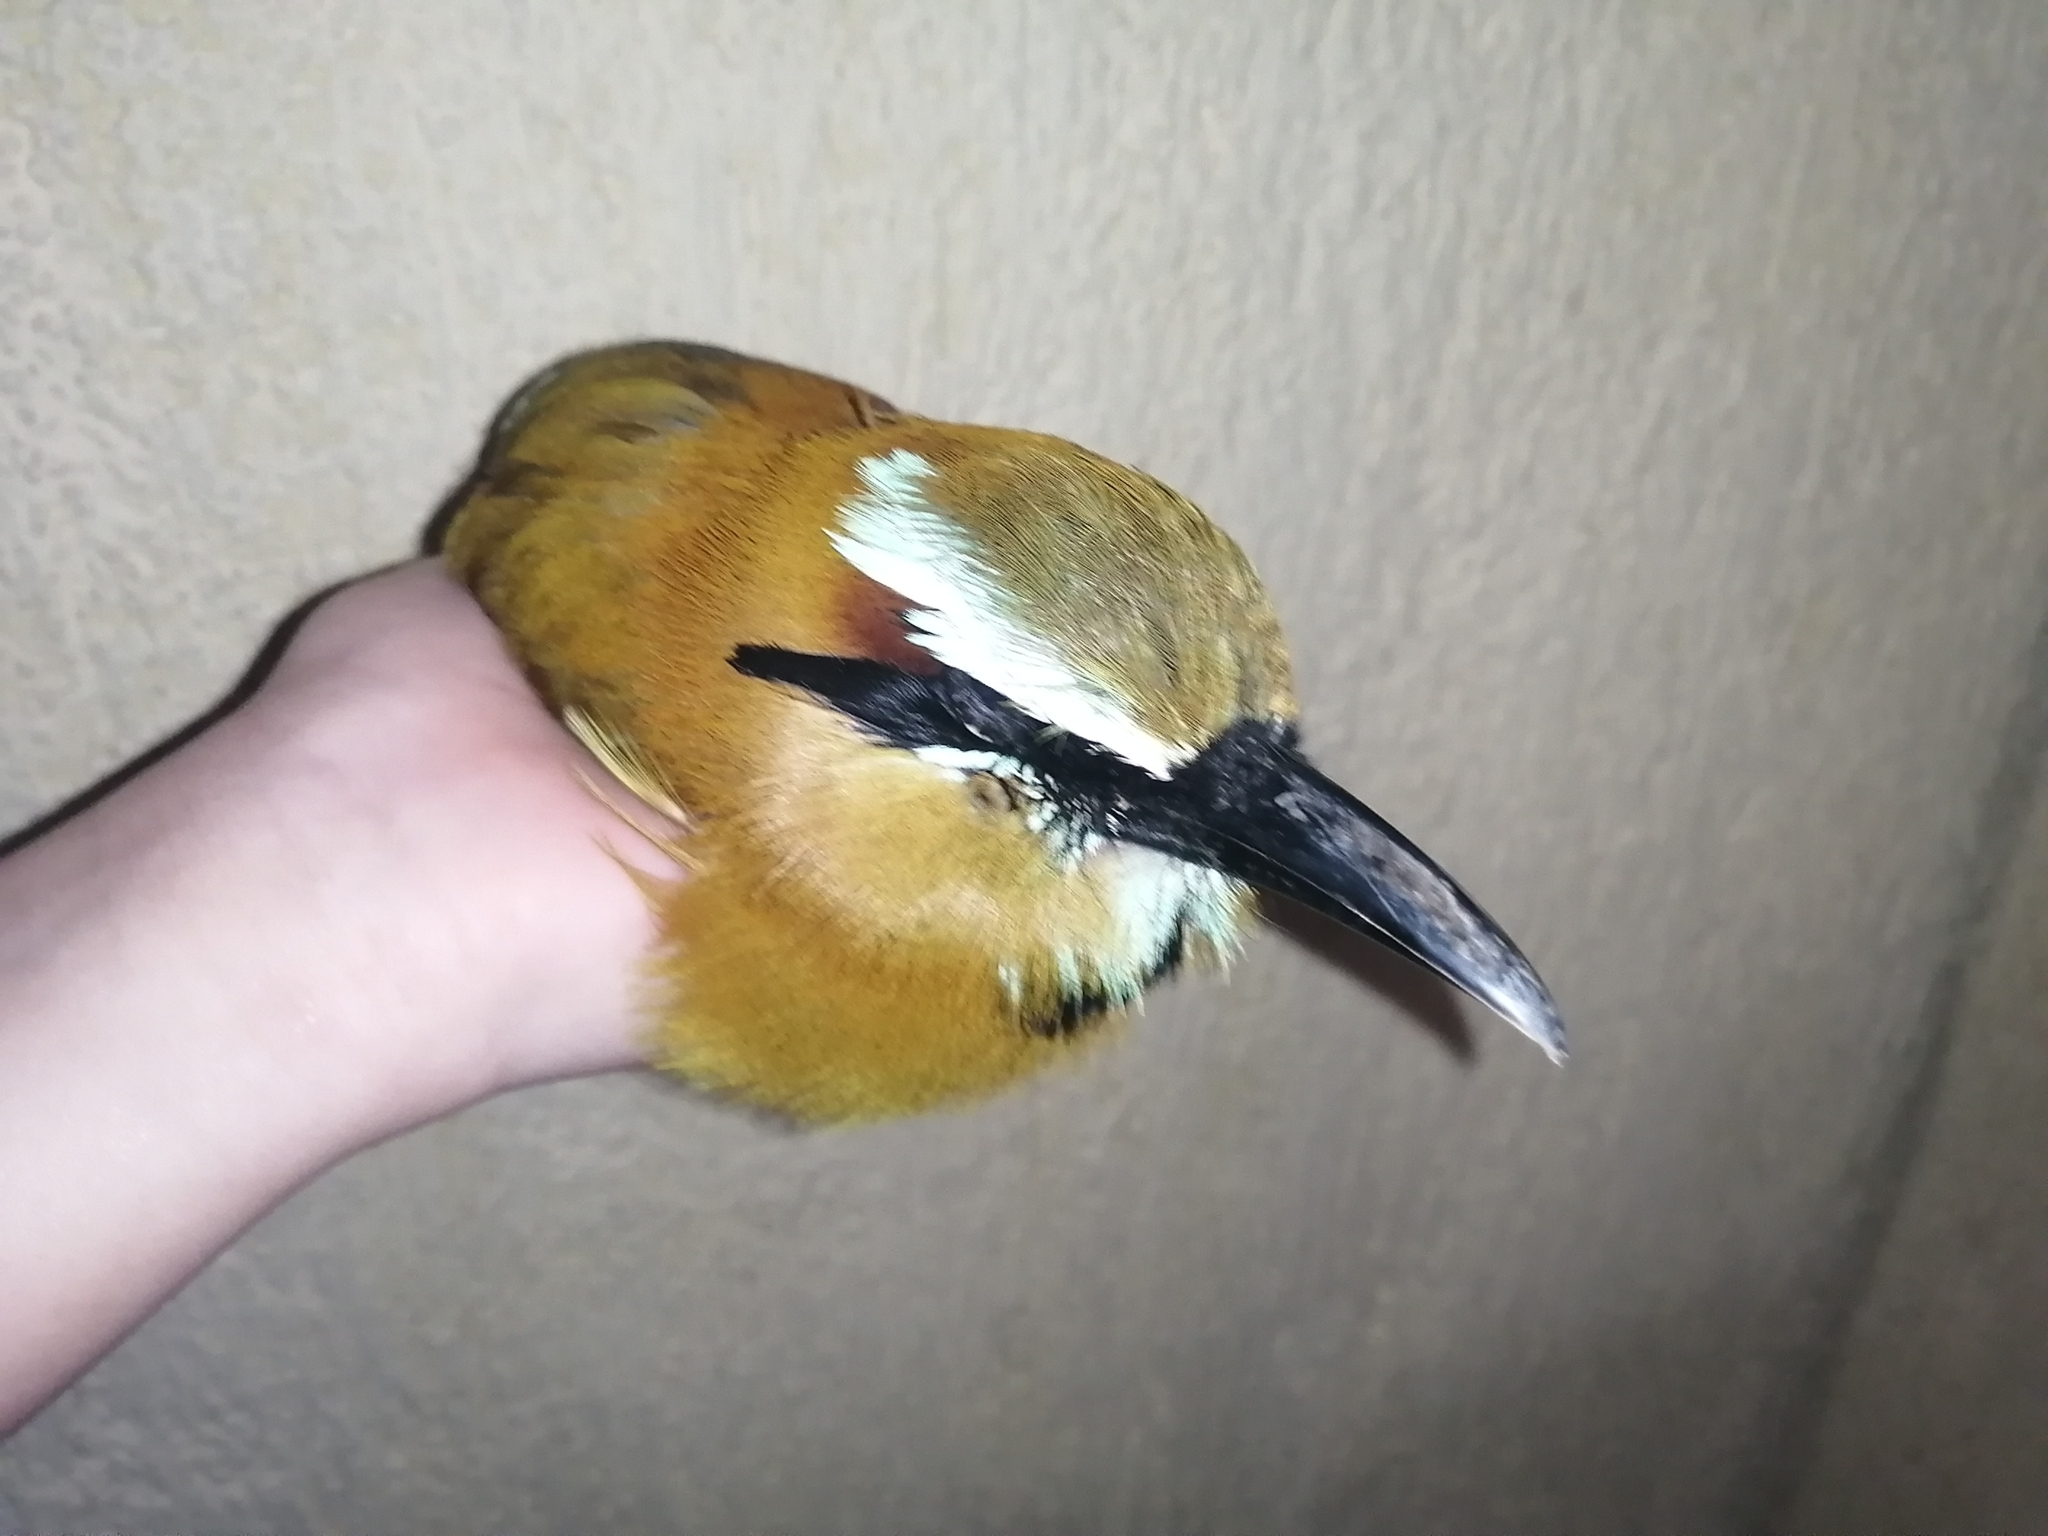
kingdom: Animalia
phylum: Chordata
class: Aves
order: Coraciiformes
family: Momotidae
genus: Eumomota
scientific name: Eumomota superciliosa
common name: Turquoise-browed motmot
